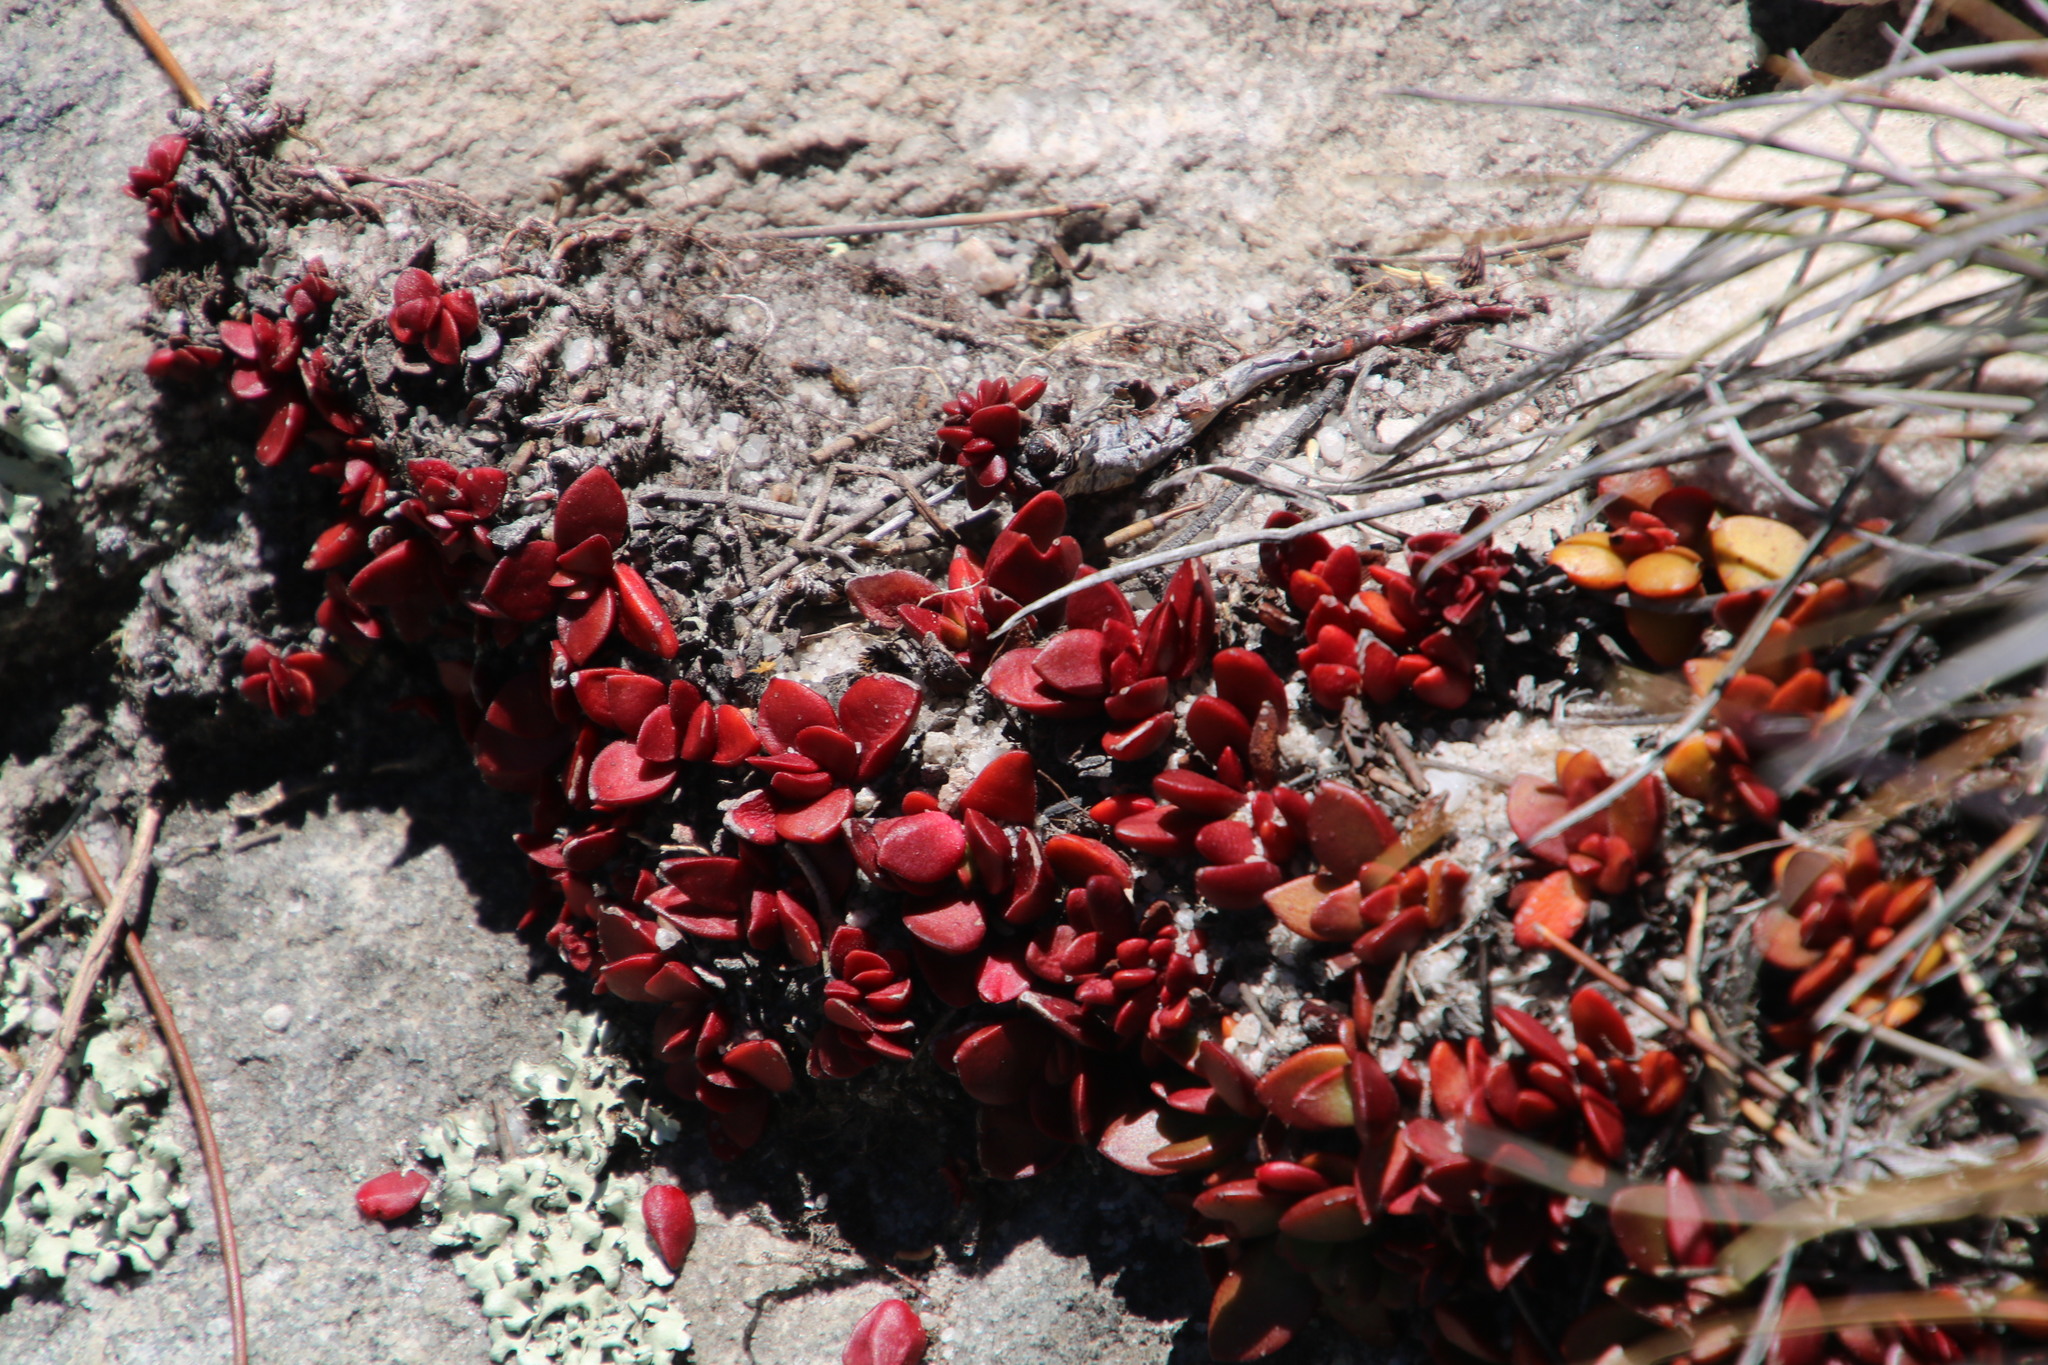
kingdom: Plantae
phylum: Tracheophyta
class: Magnoliopsida
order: Saxifragales
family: Crassulaceae
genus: Crassula
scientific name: Crassula atropurpurea
